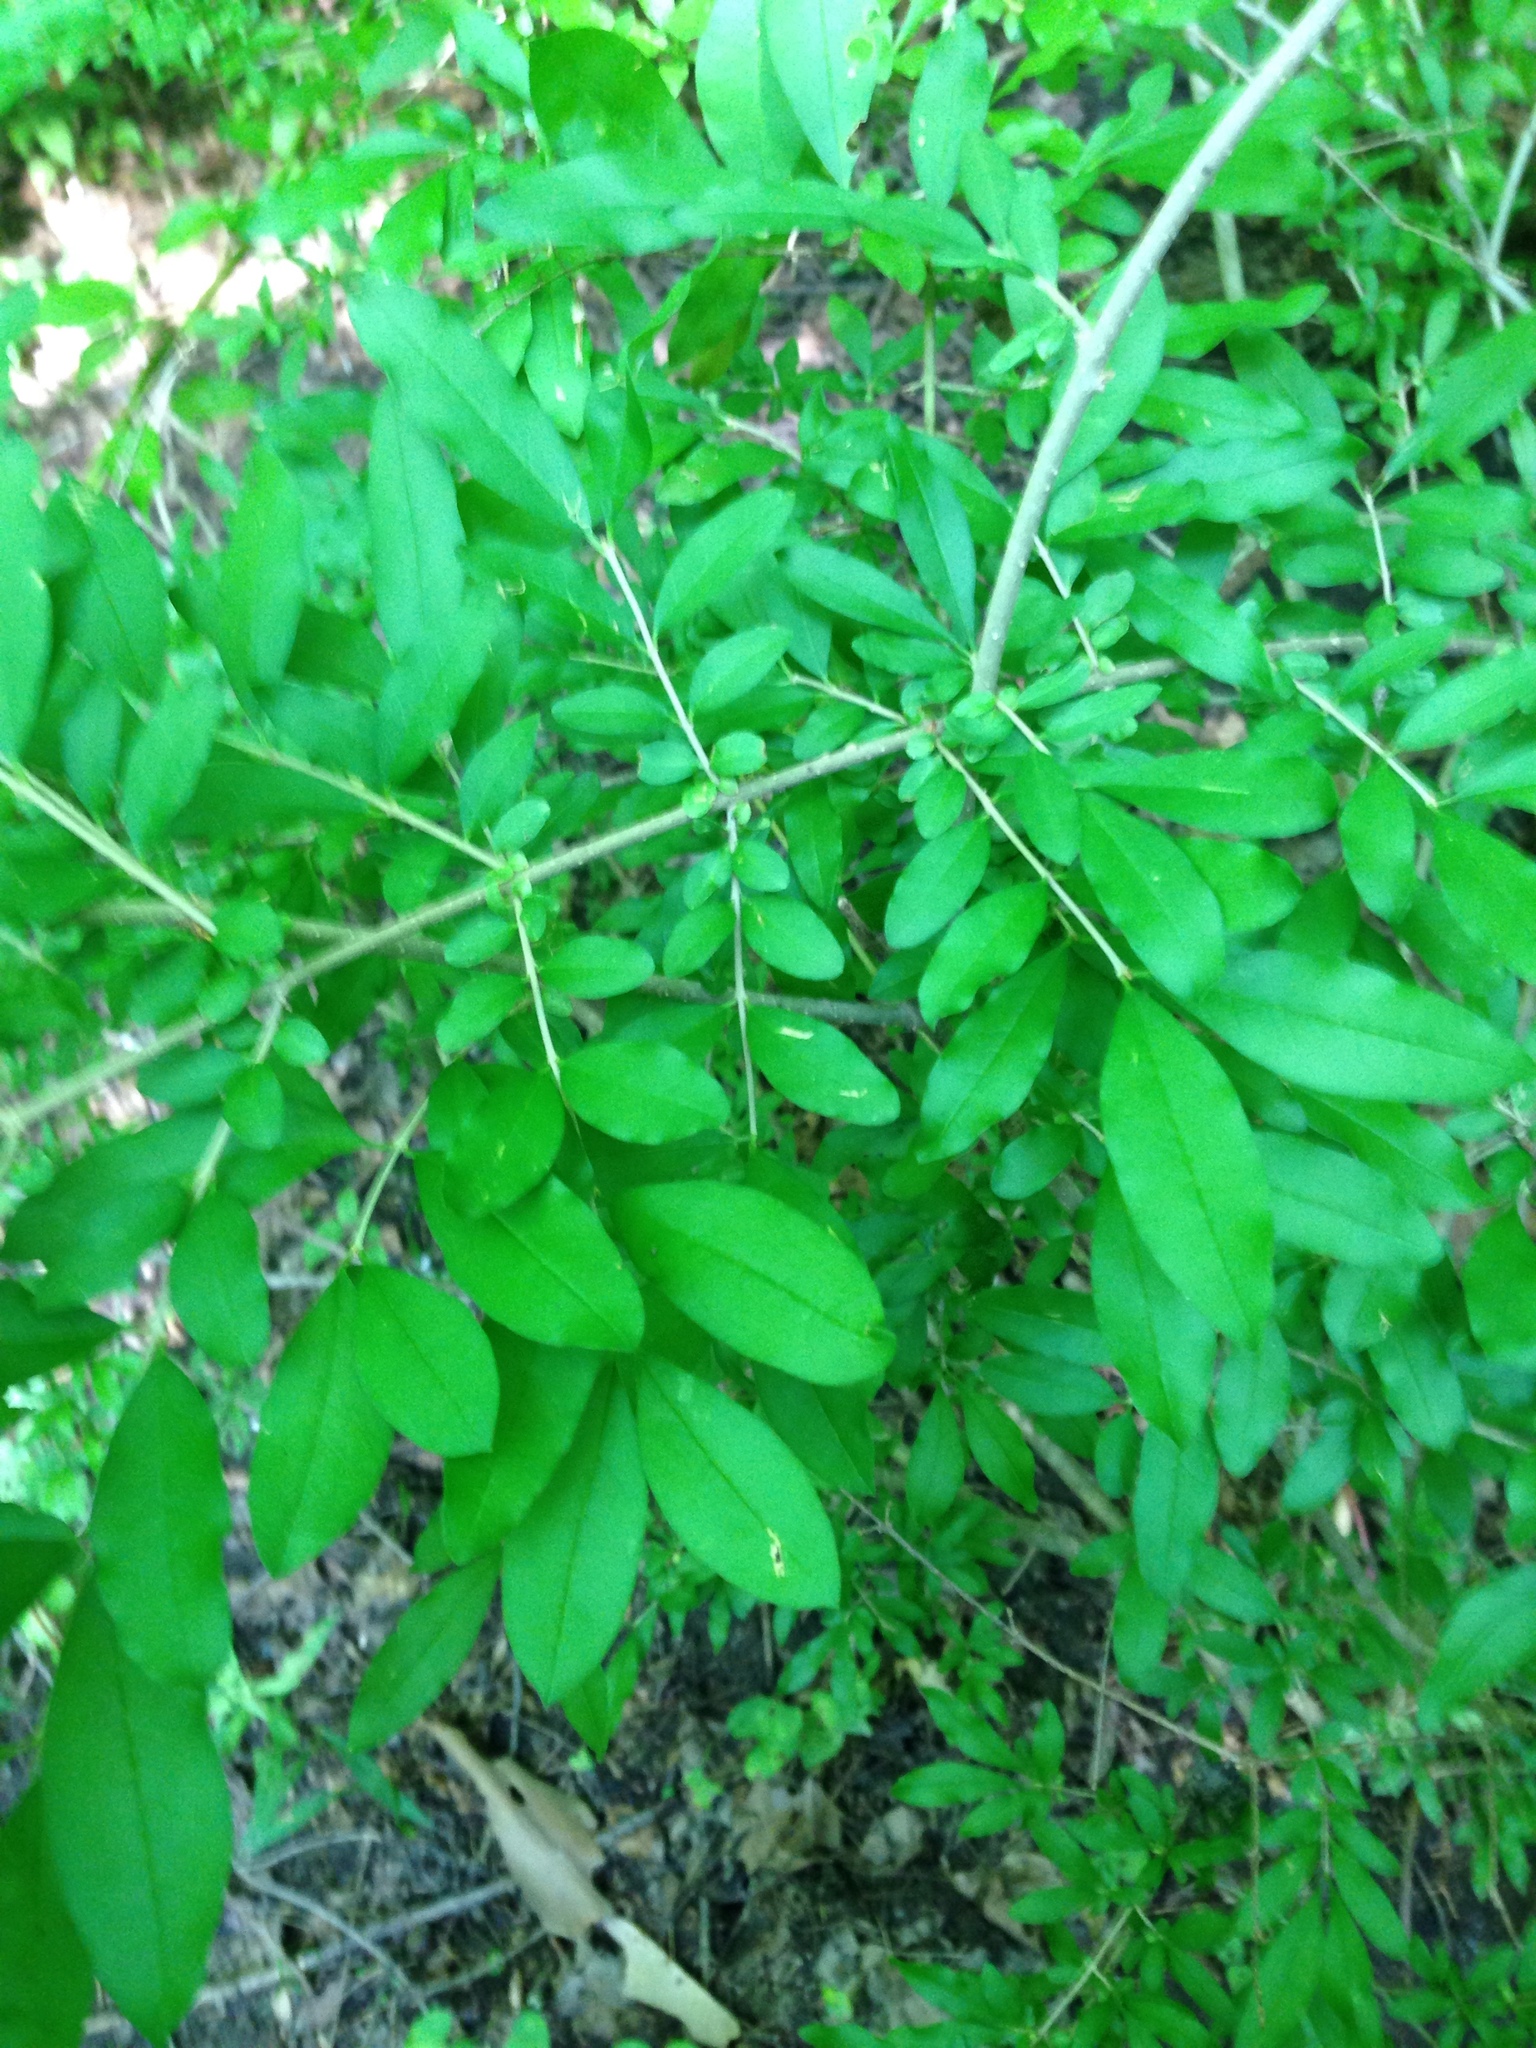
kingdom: Plantae
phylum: Tracheophyta
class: Magnoliopsida
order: Lamiales
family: Oleaceae
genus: Ligustrum
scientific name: Ligustrum obtusifolium
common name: Border privet
